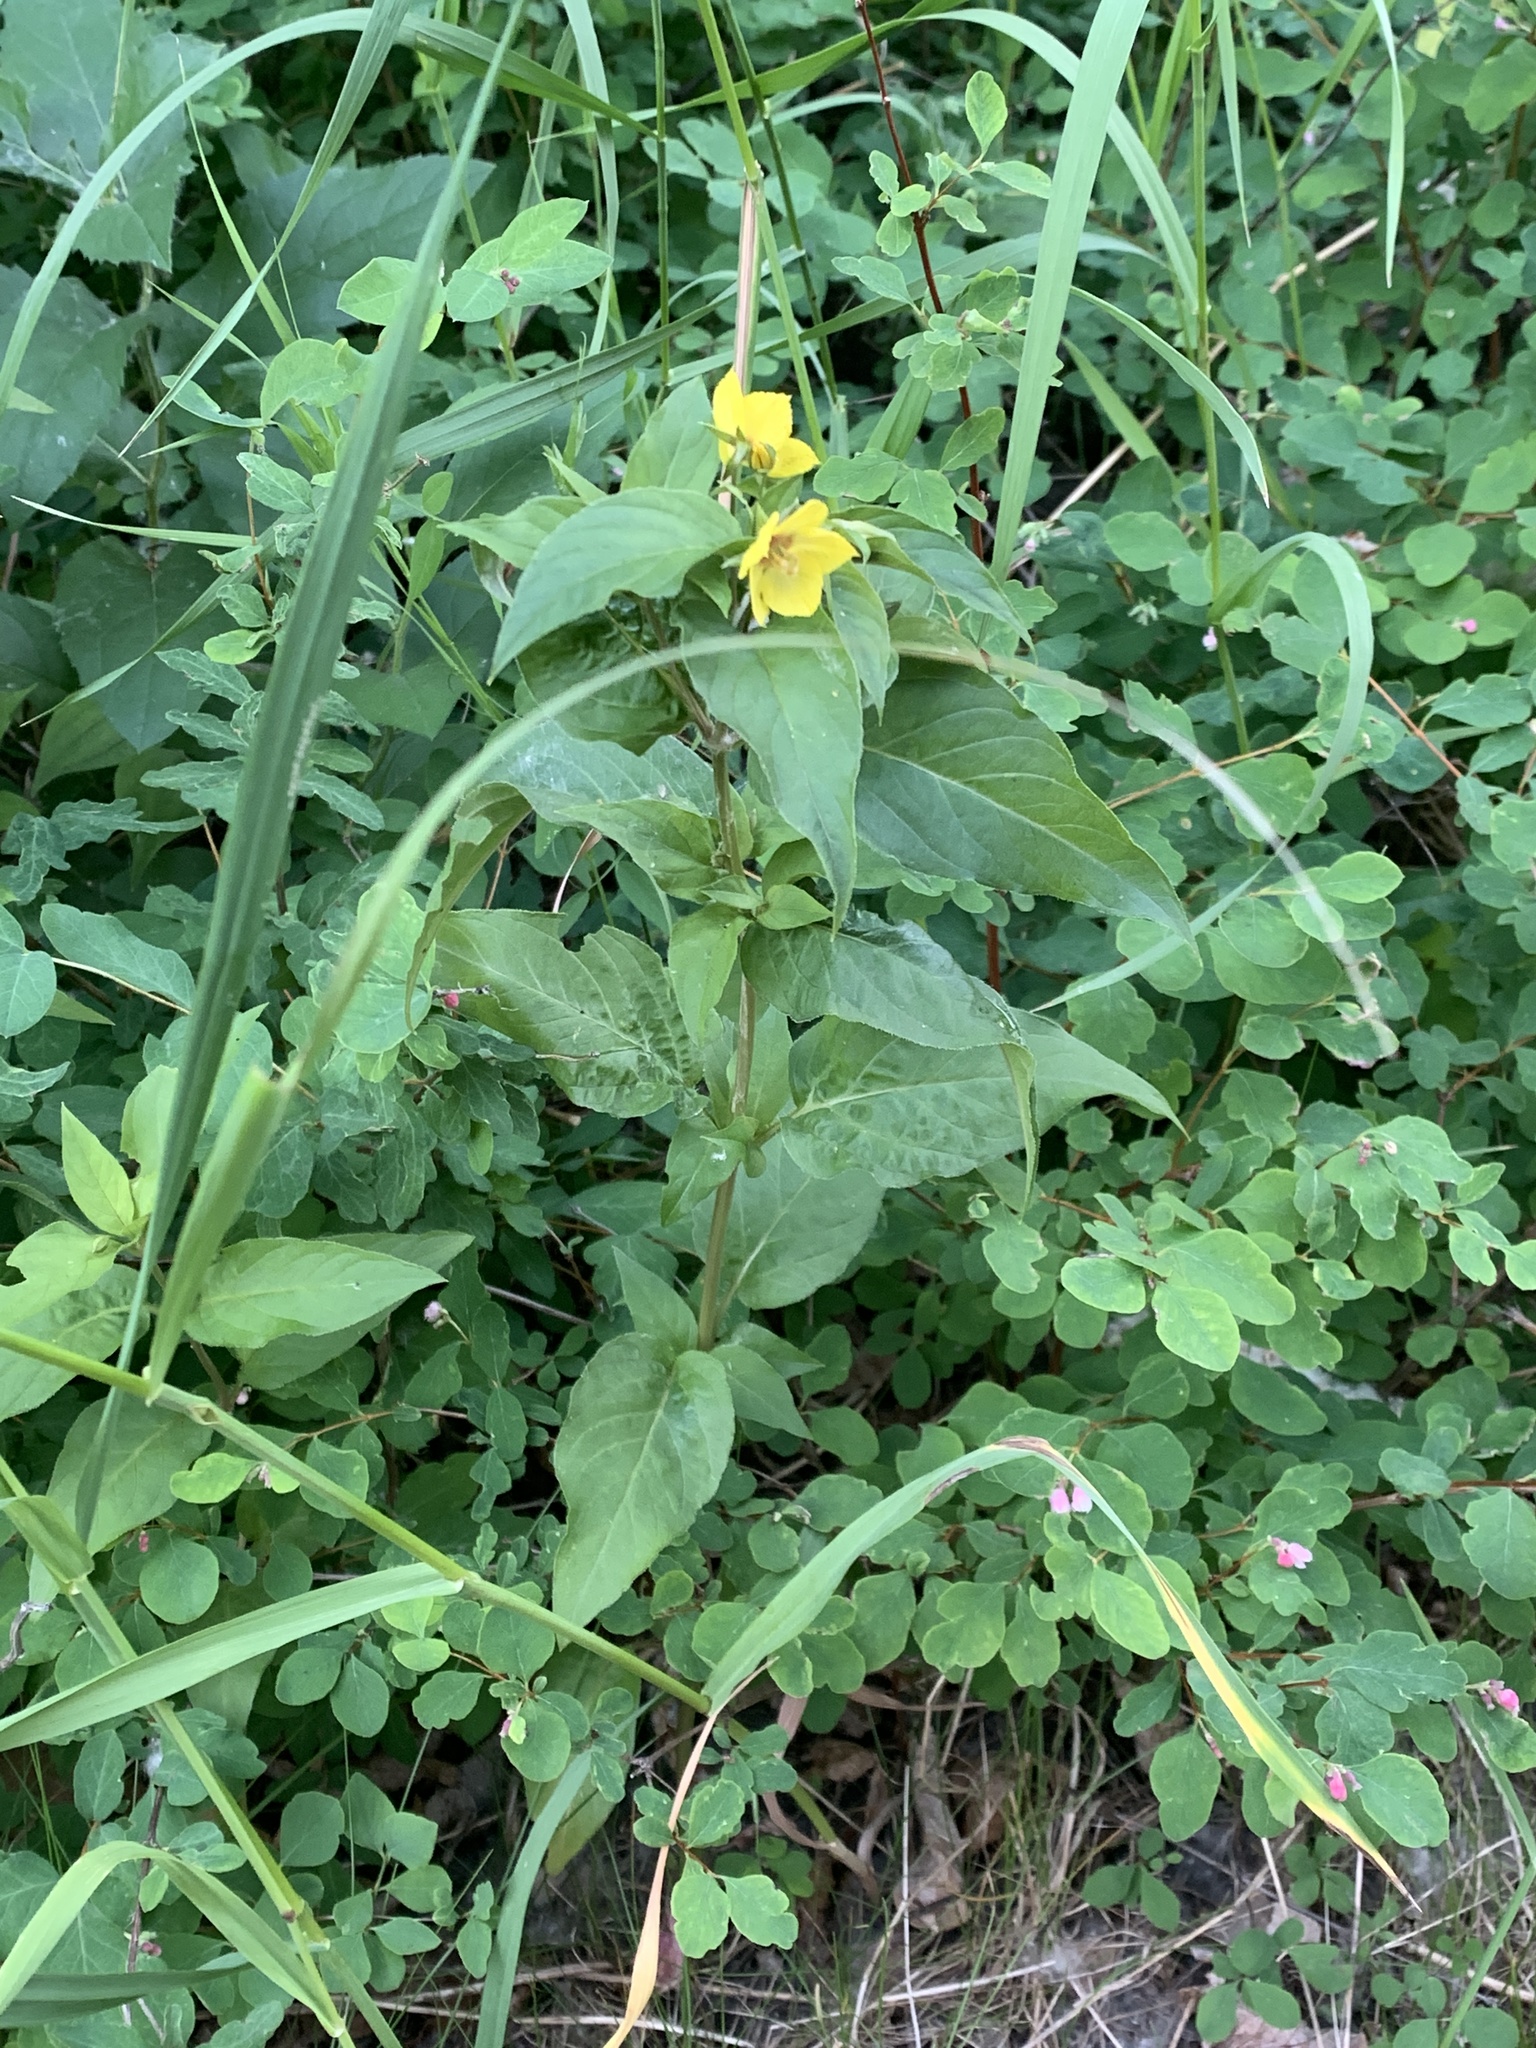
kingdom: Plantae
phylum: Tracheophyta
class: Magnoliopsida
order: Ericales
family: Primulaceae
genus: Lysimachia
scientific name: Lysimachia ciliata
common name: Fringed loosestrife
